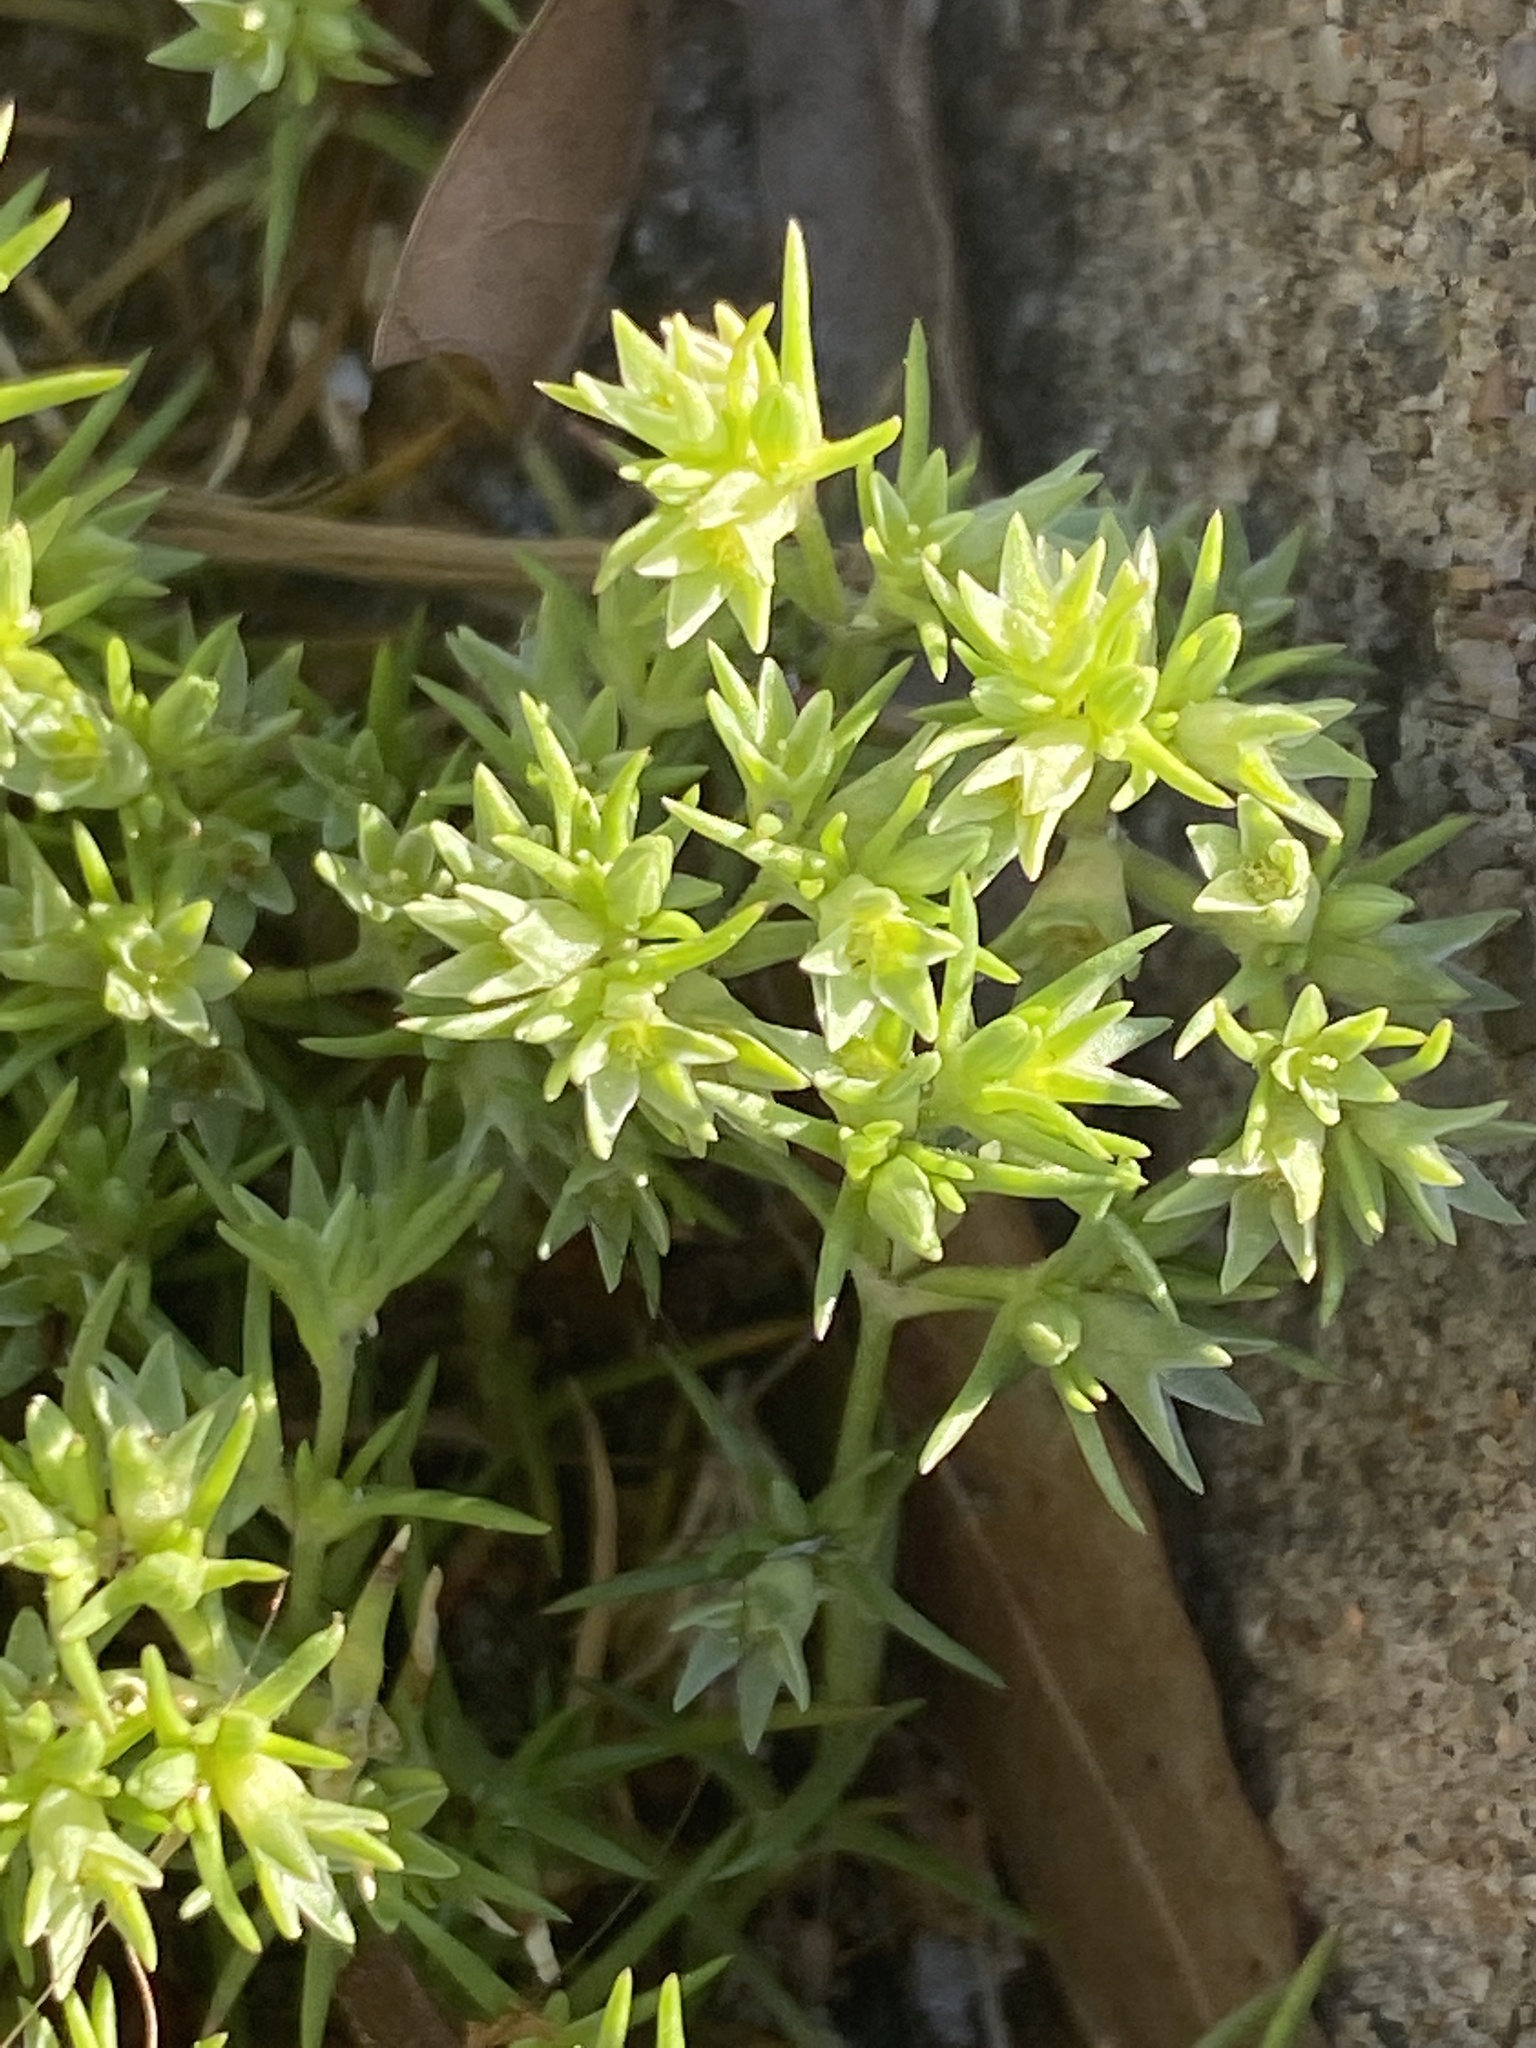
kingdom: Plantae
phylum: Tracheophyta
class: Magnoliopsida
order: Caryophyllales
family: Caryophyllaceae
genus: Scleranthus
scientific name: Scleranthus annuus
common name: Annual knawel
